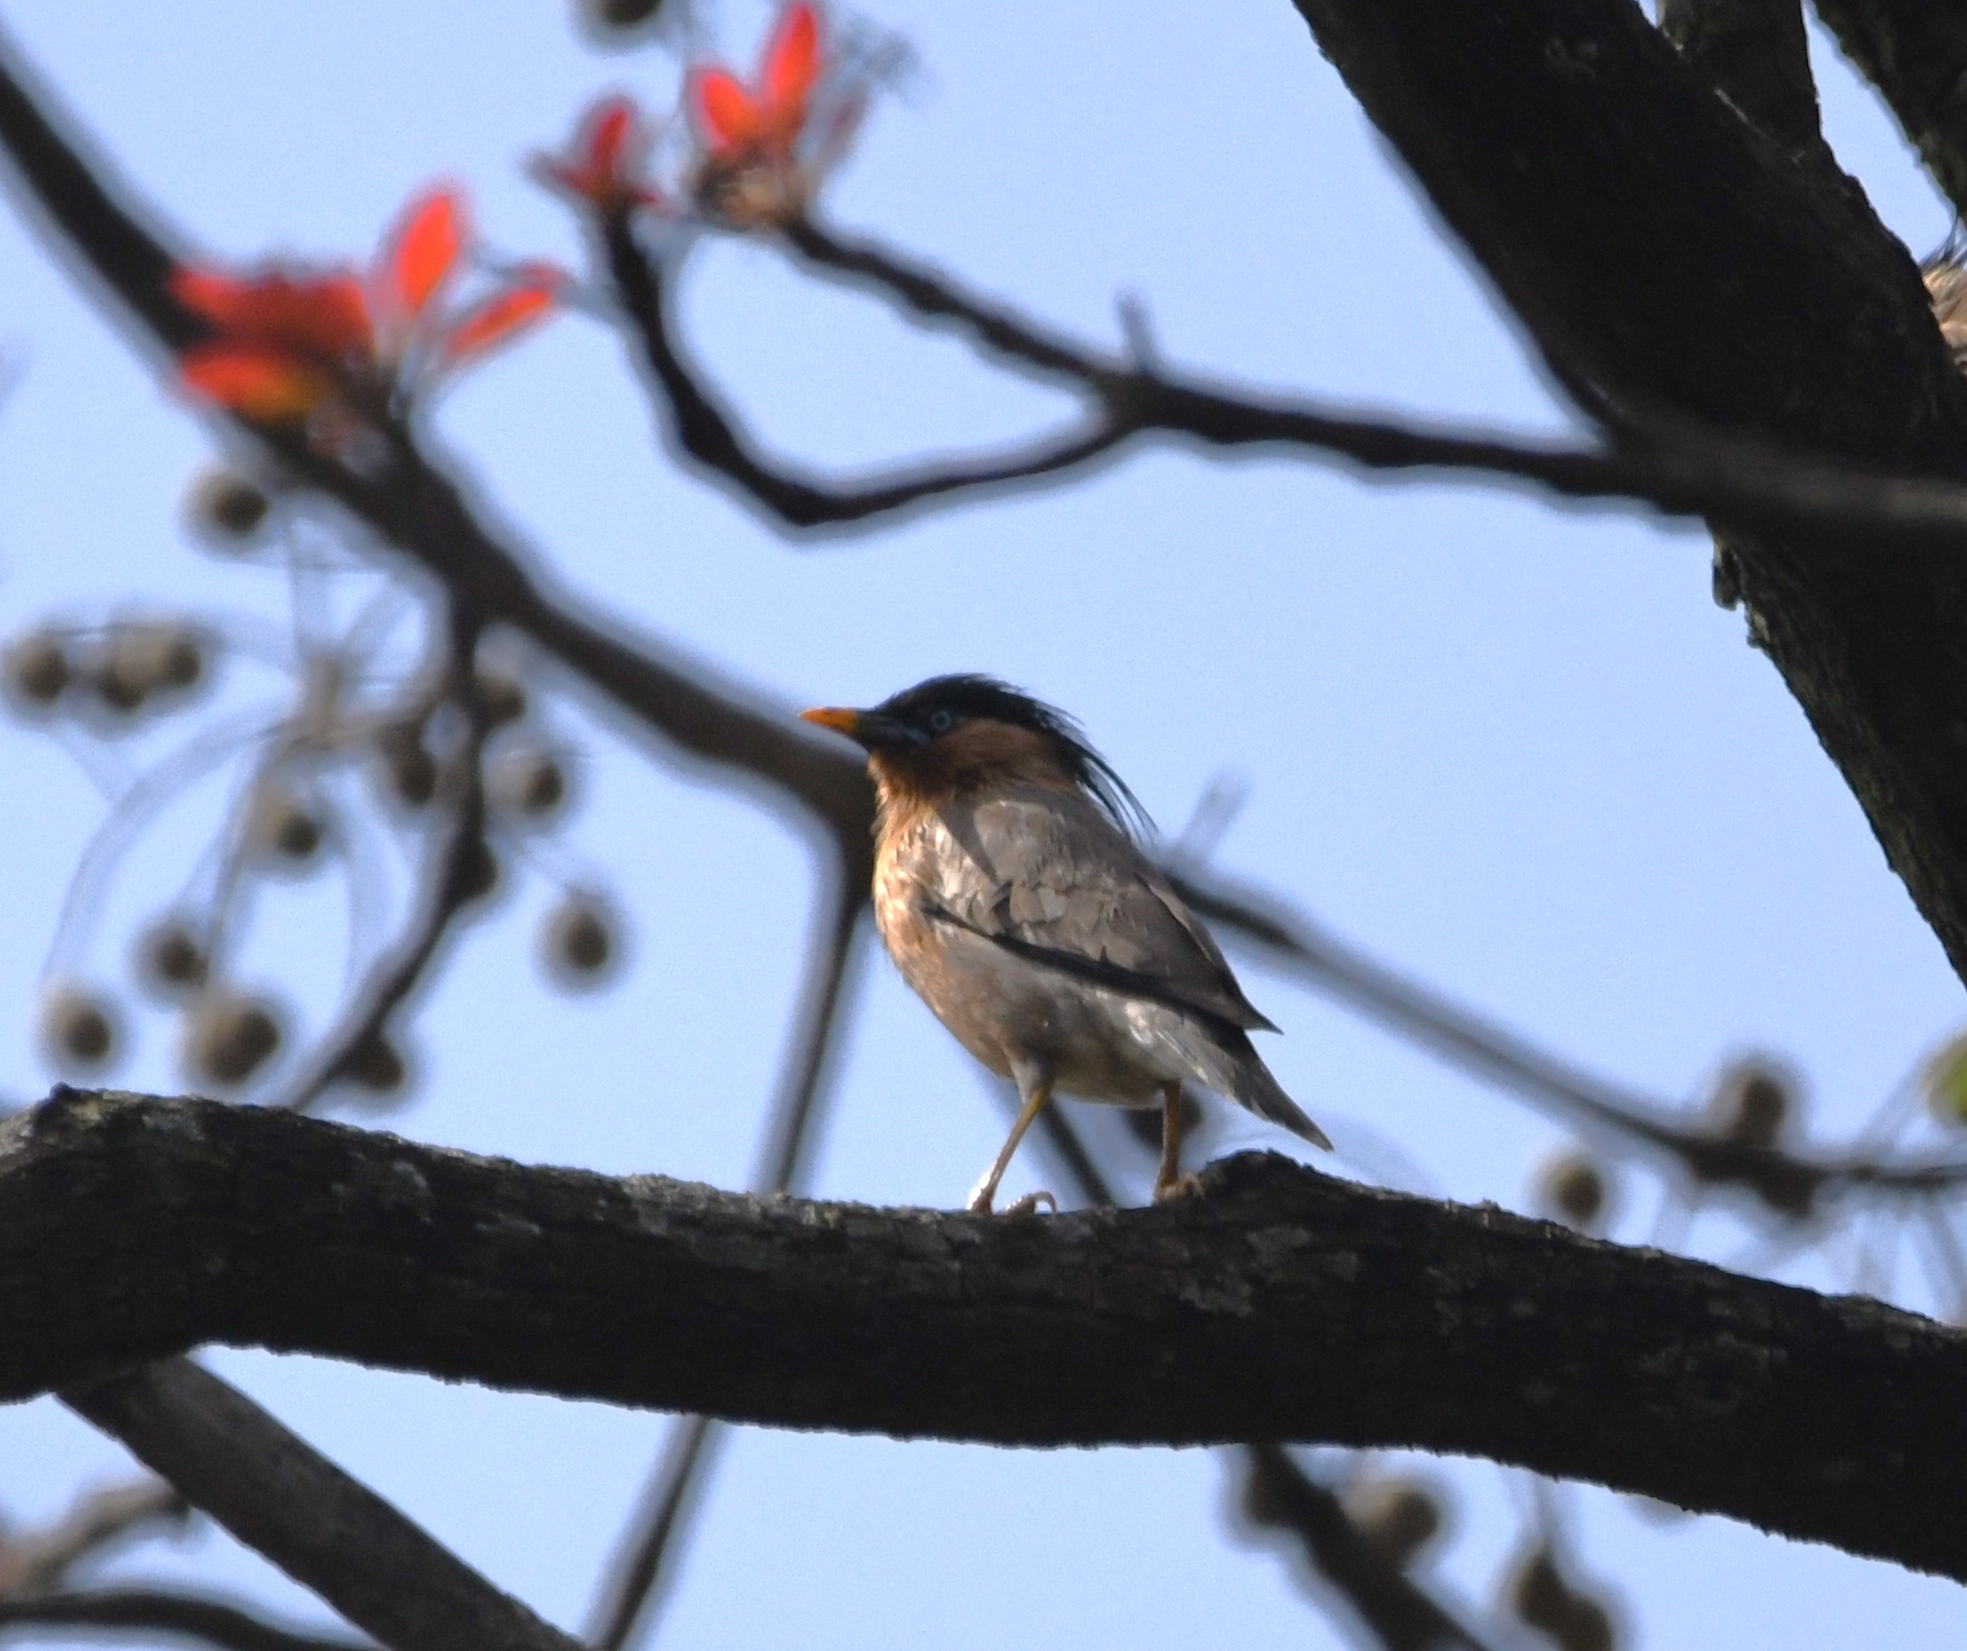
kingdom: Animalia
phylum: Chordata
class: Aves
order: Passeriformes
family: Sturnidae
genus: Sturnia
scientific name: Sturnia pagodarum
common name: Brahminy starling
